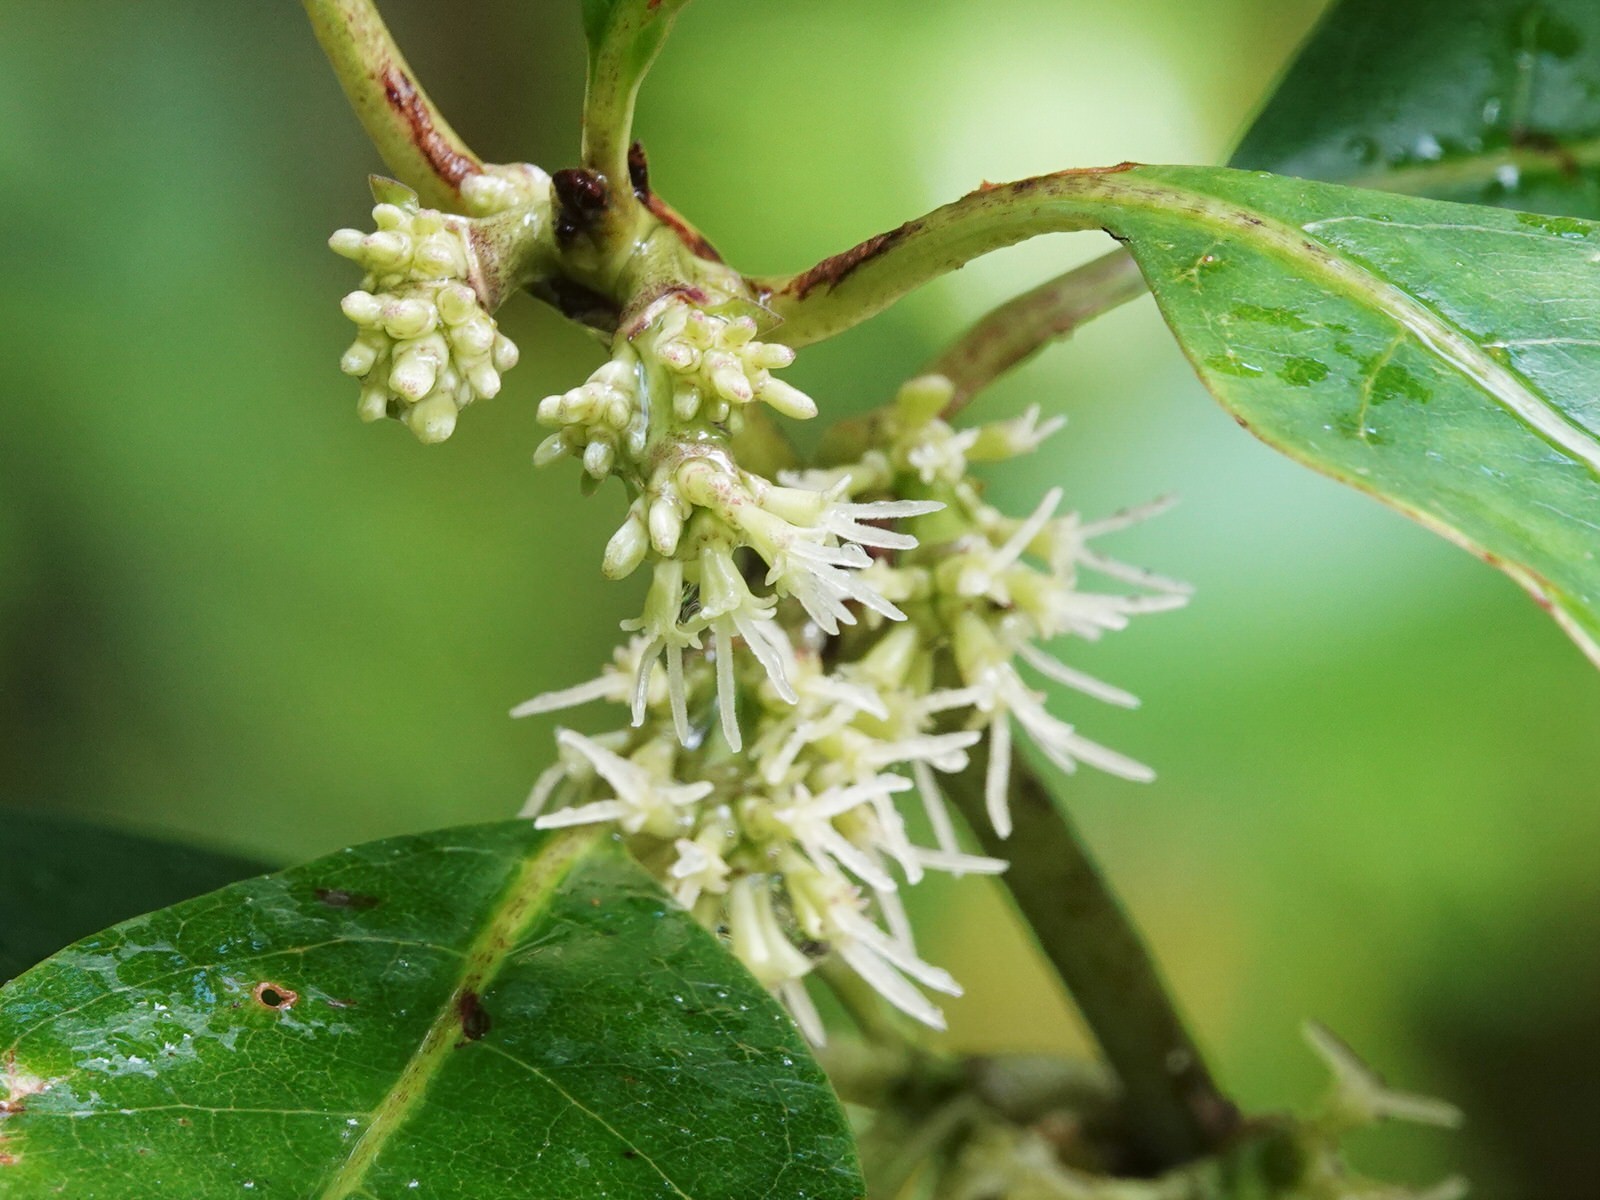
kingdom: Plantae
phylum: Tracheophyta
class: Magnoliopsida
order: Gentianales
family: Rubiaceae
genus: Coprosma
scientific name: Coprosma autumnalis
